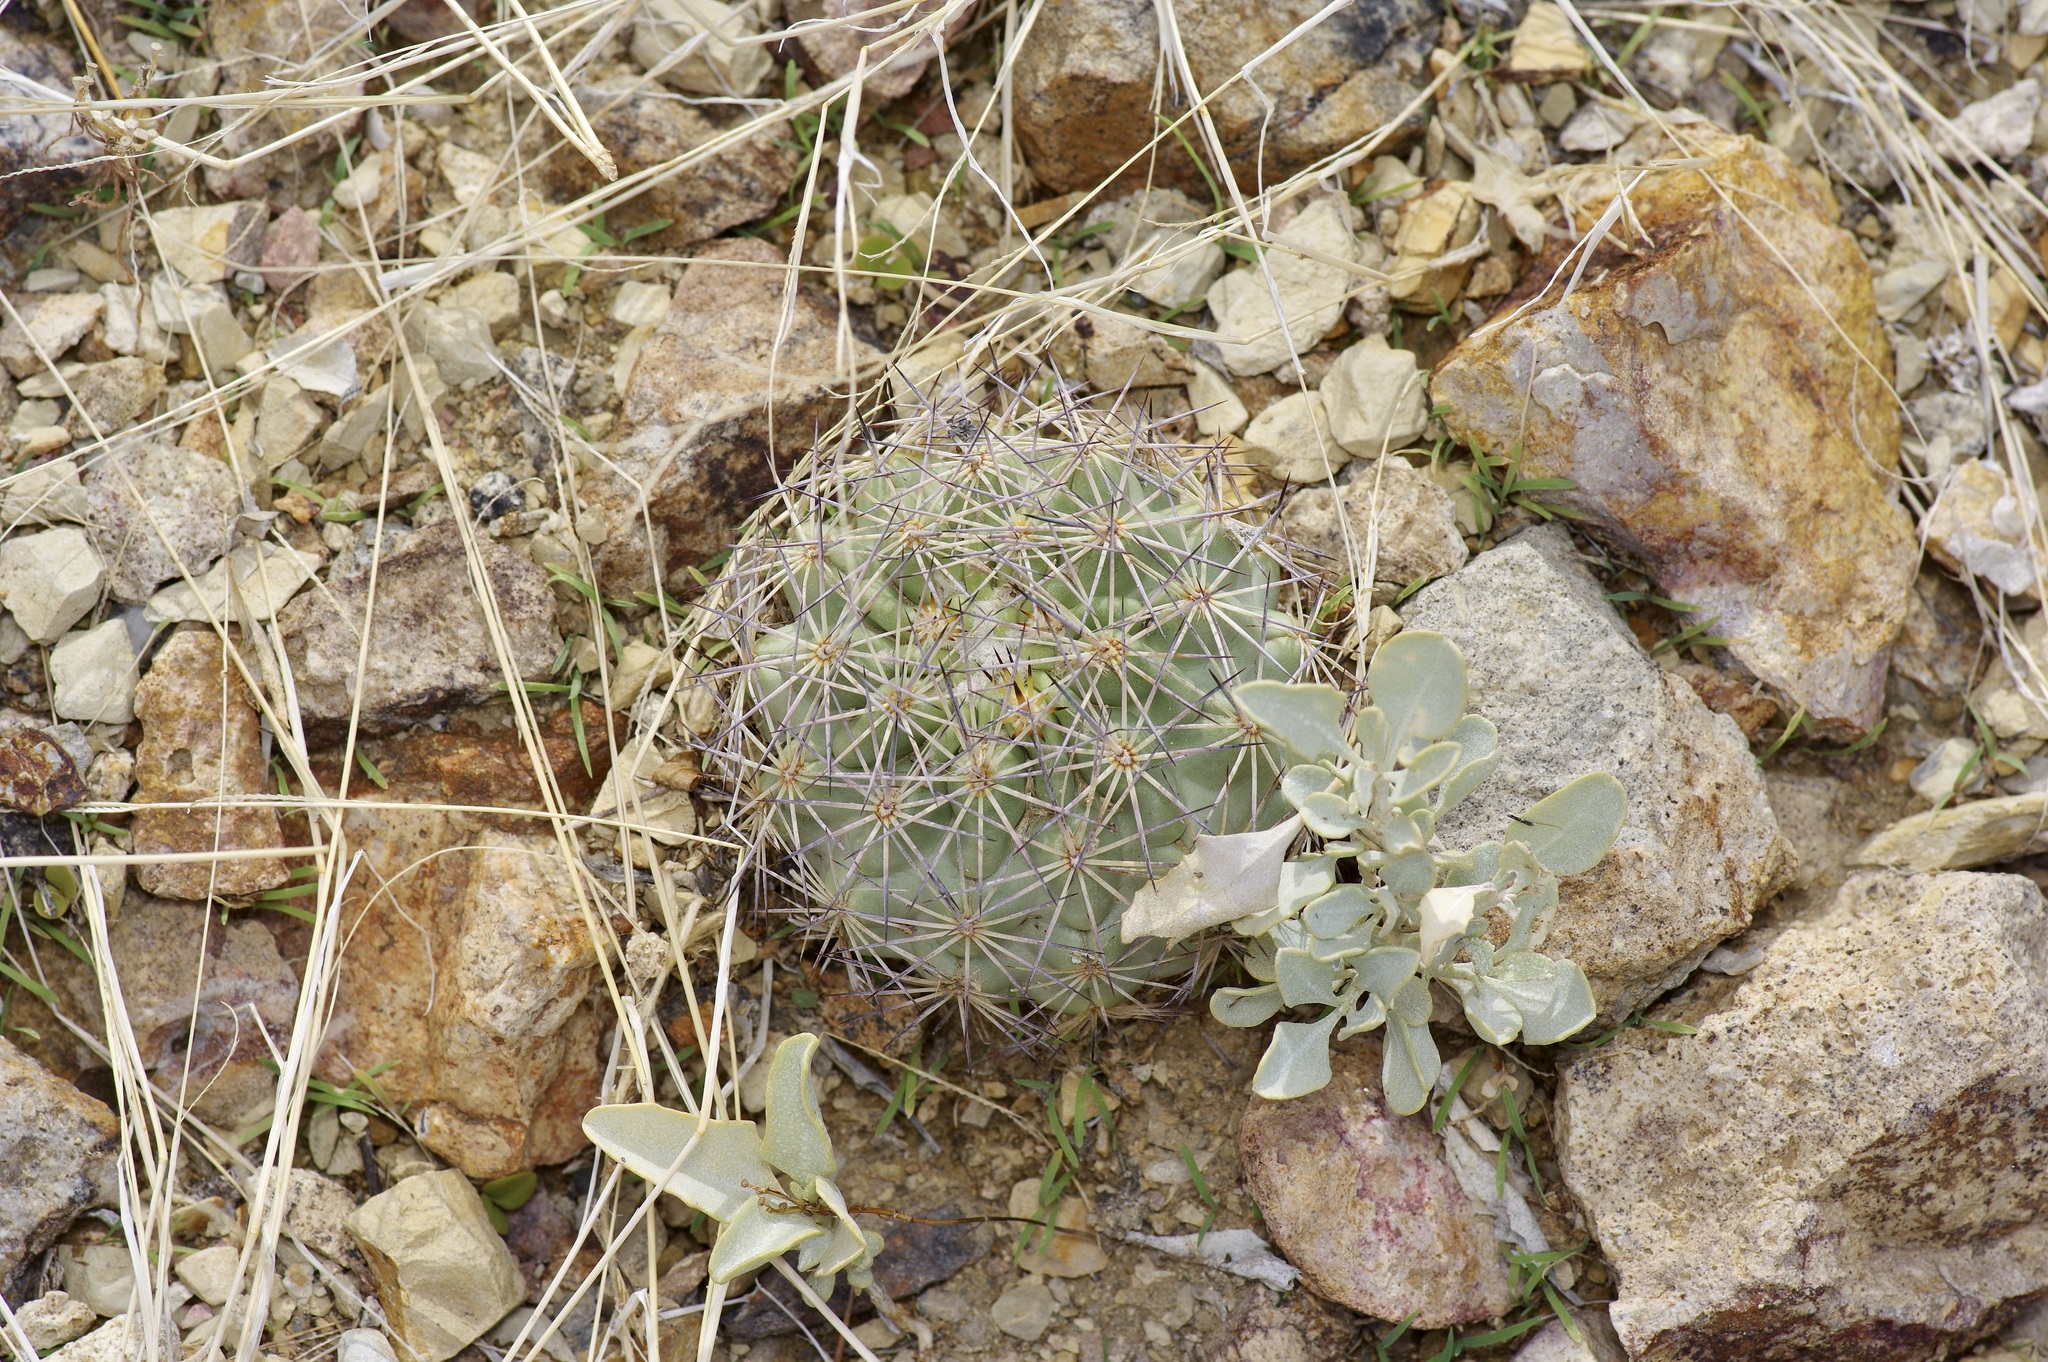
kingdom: Plantae
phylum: Tracheophyta
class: Magnoliopsida
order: Caryophyllales
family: Cactaceae
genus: Sclerocactus
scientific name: Sclerocactus warnockii
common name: Pineapple cactus
